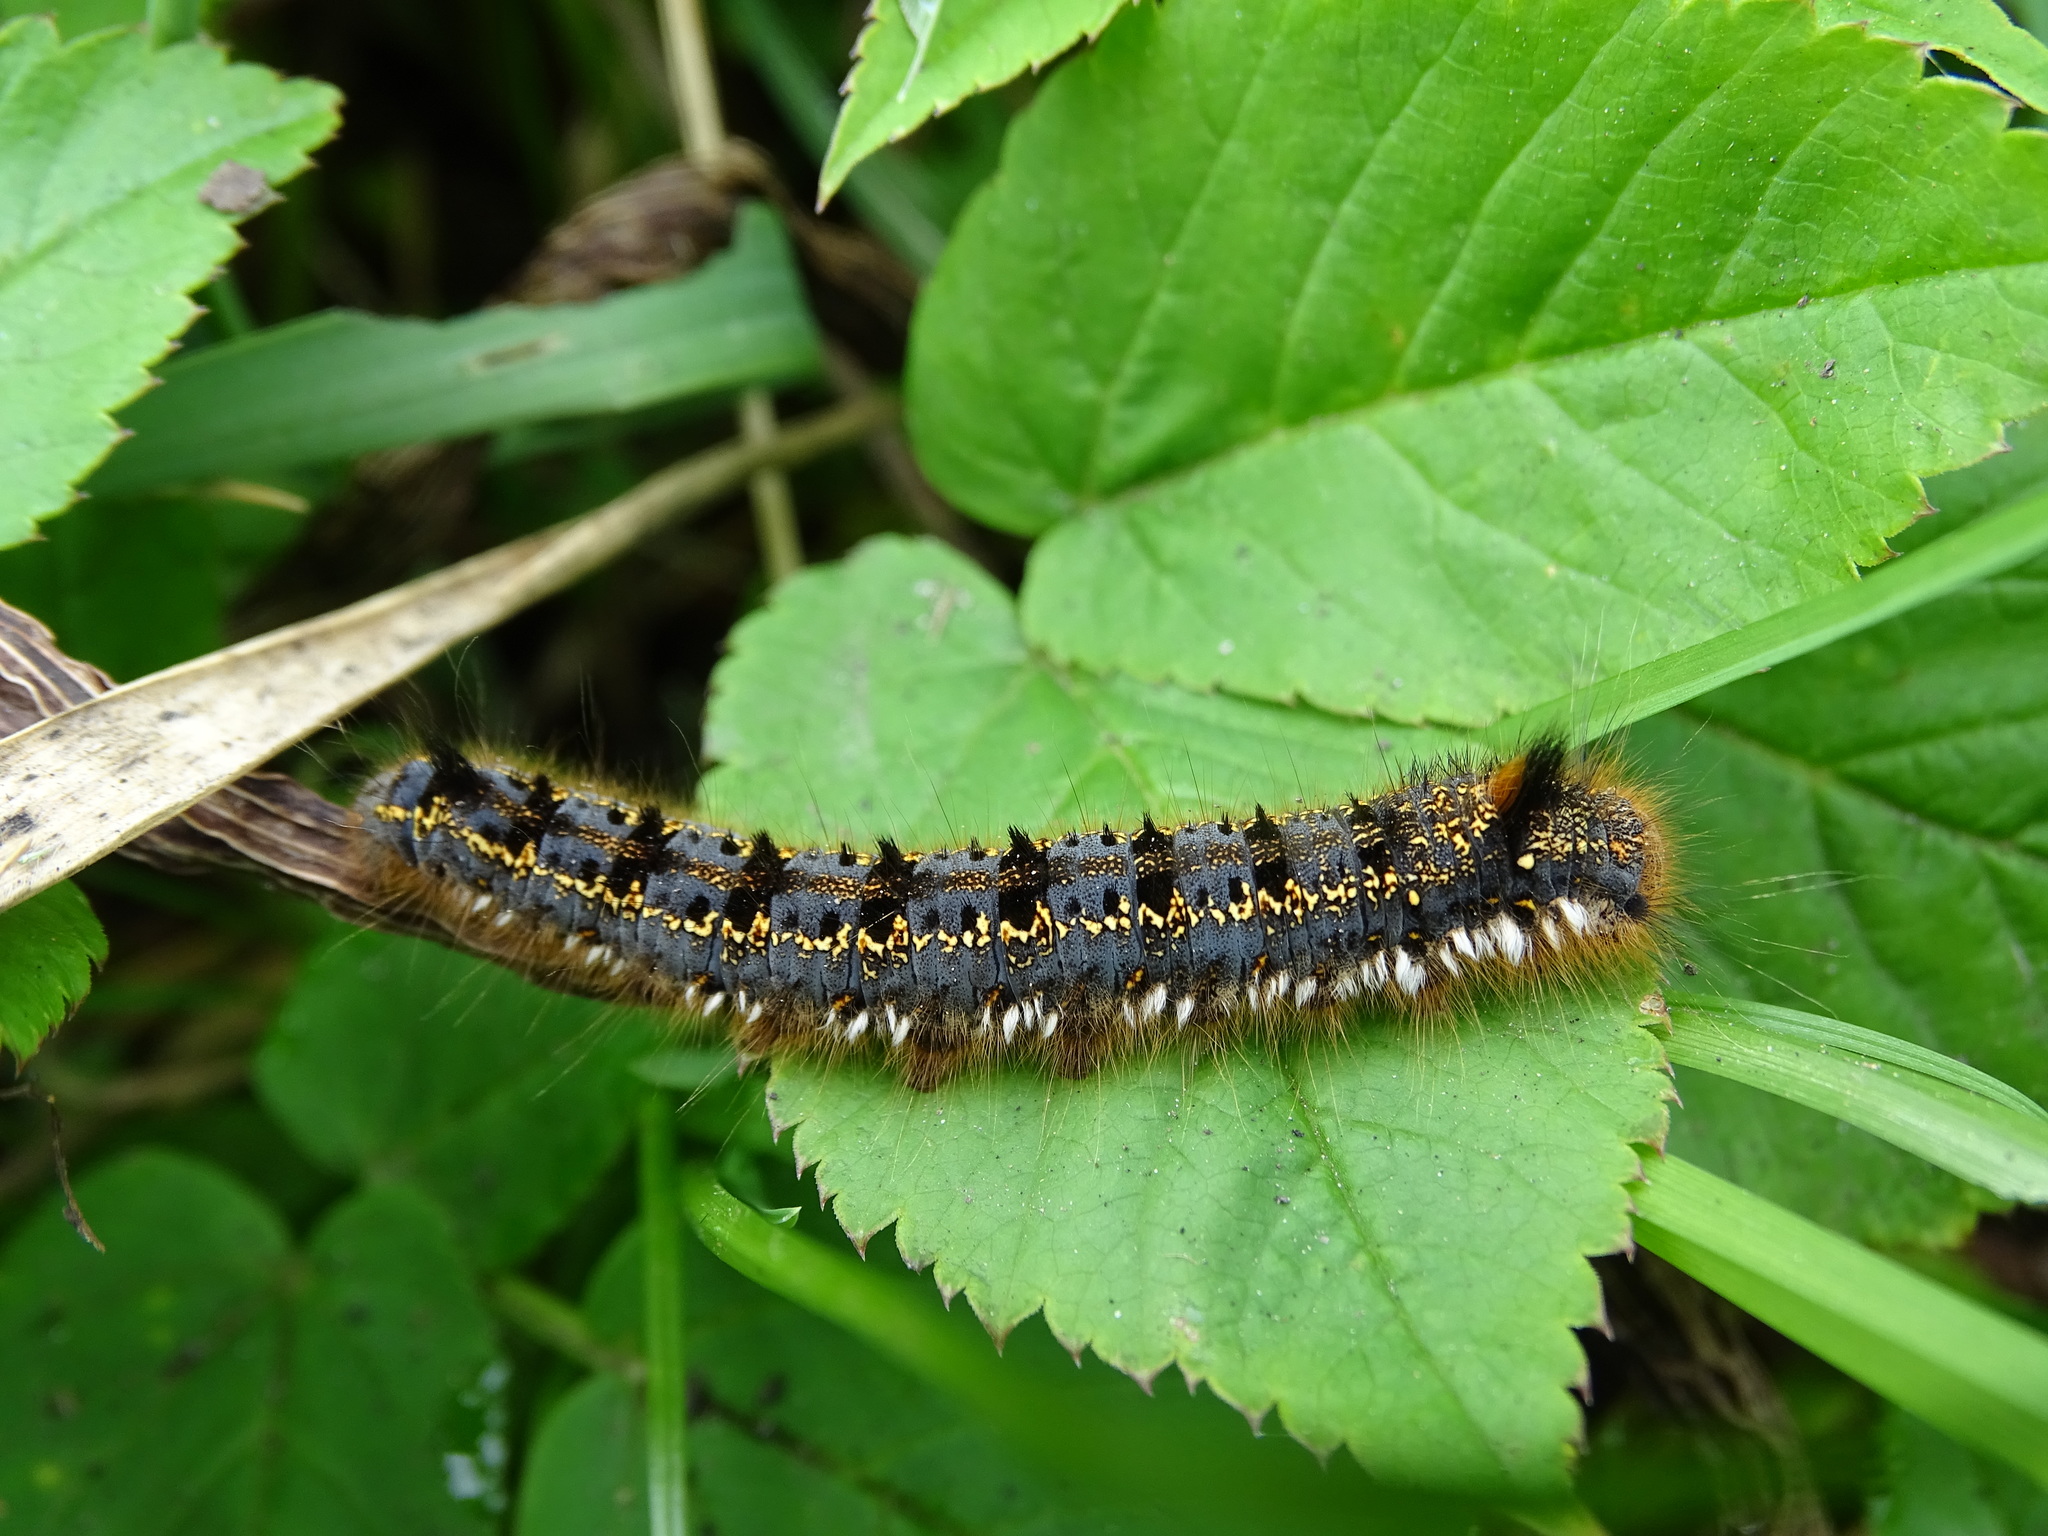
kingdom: Animalia
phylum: Arthropoda
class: Insecta
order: Lepidoptera
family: Lasiocampidae
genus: Euthrix
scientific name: Euthrix potatoria
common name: Drinker
